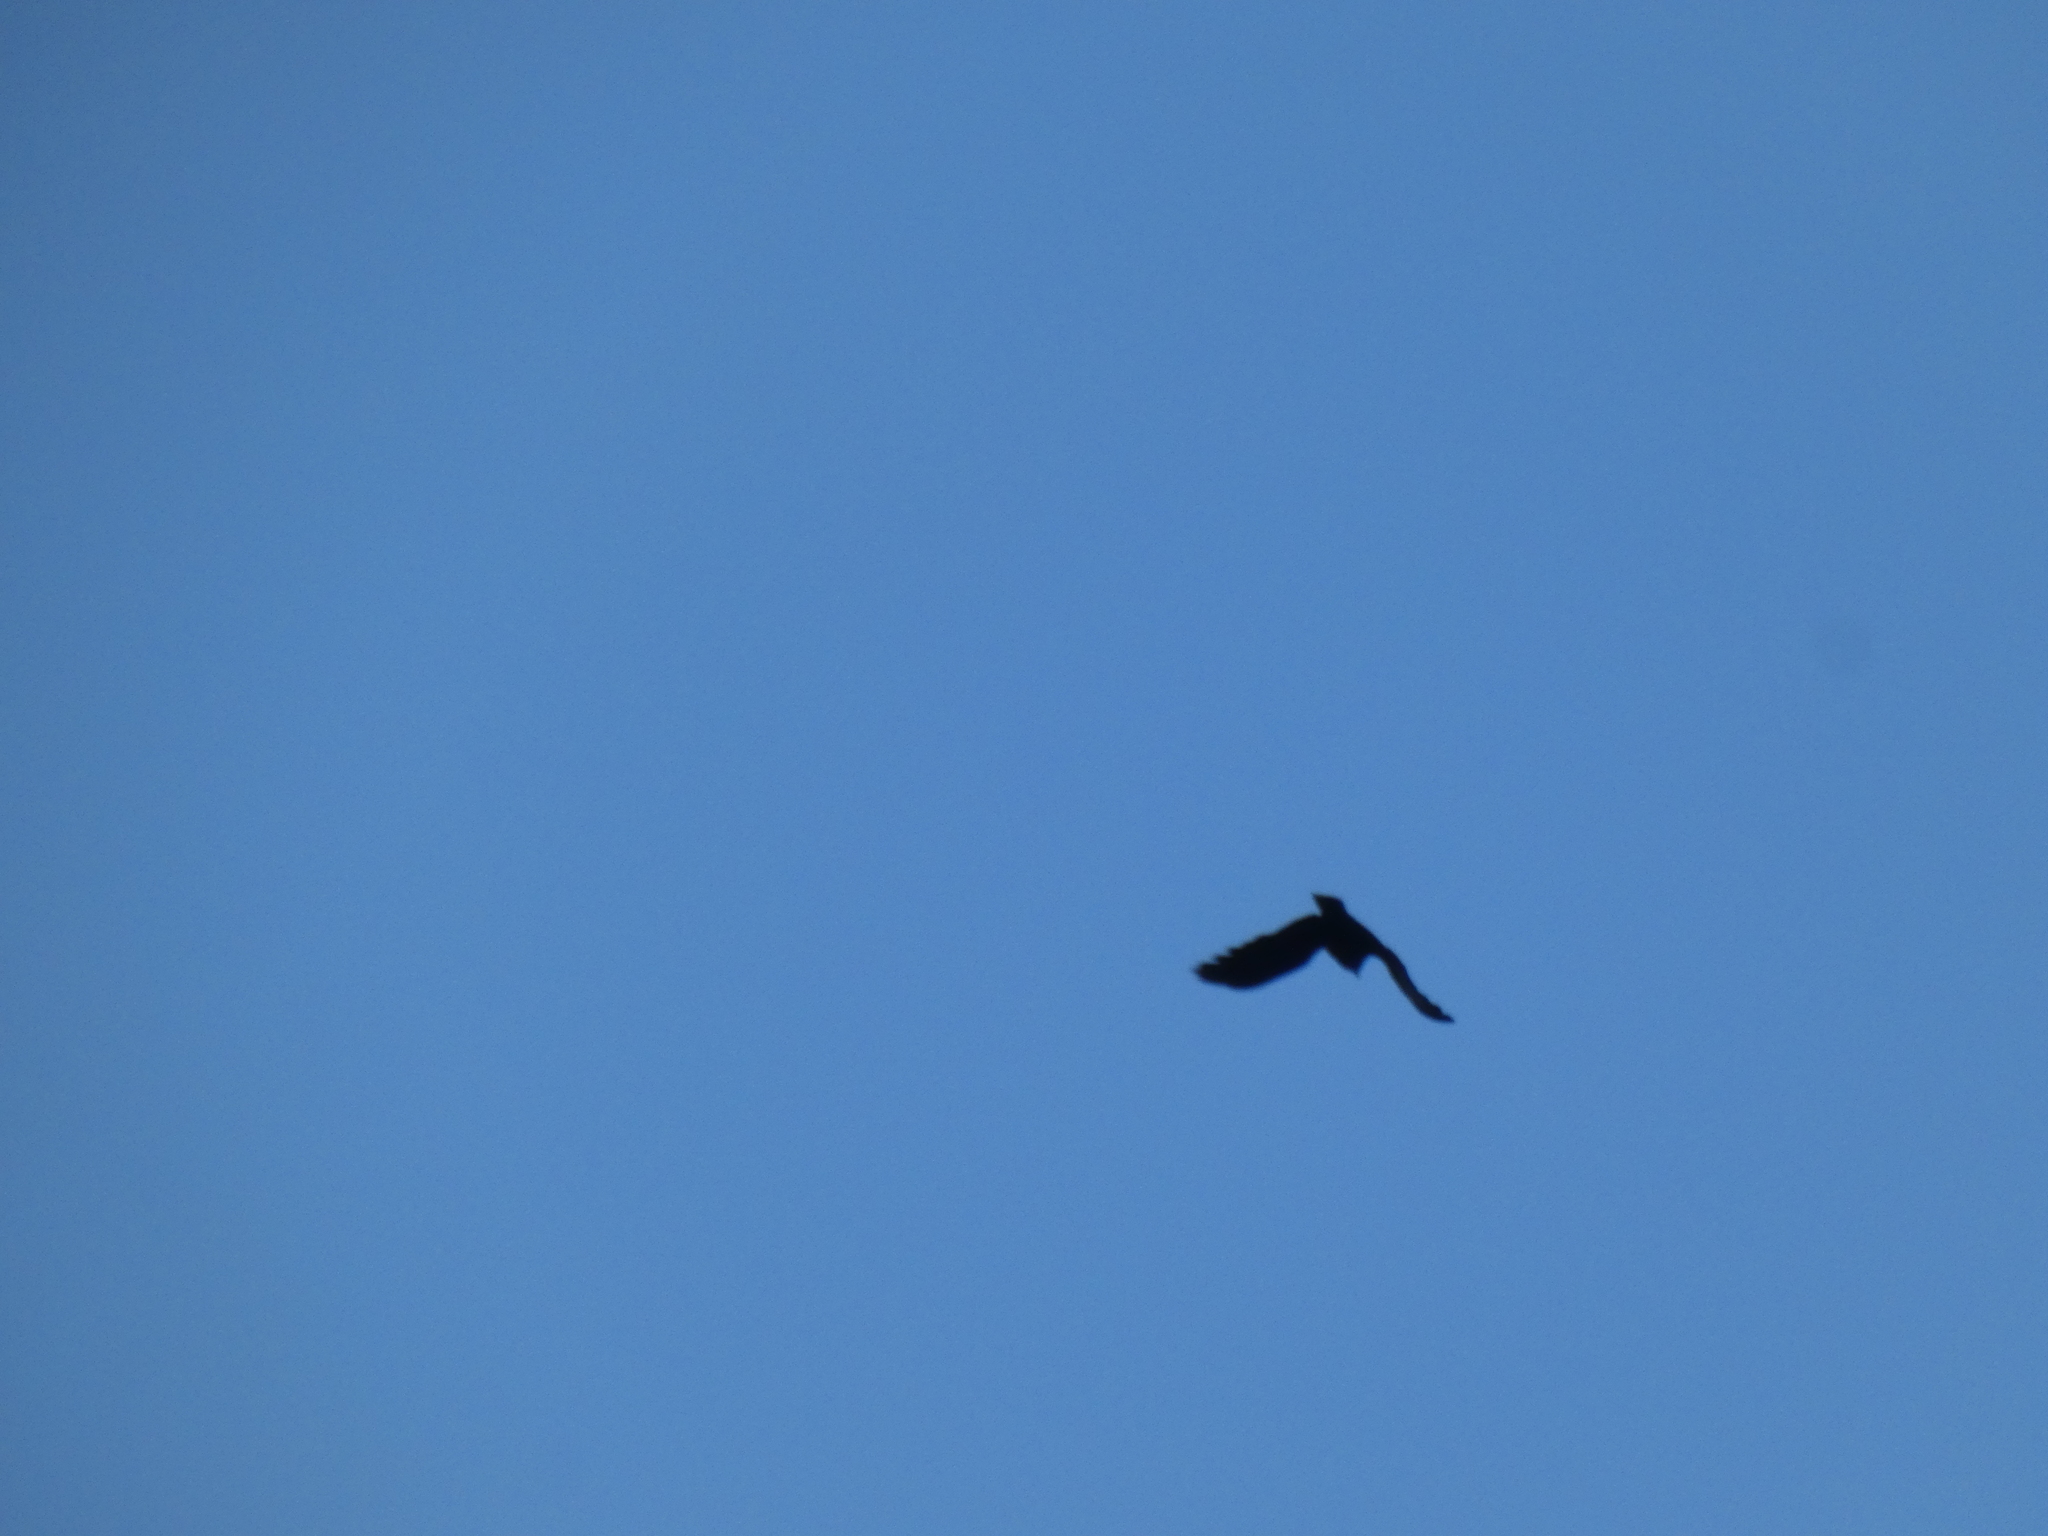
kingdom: Animalia
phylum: Chordata
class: Aves
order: Passeriformes
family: Corvidae
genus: Corvus
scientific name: Corvus brachyrhynchos
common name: American crow
